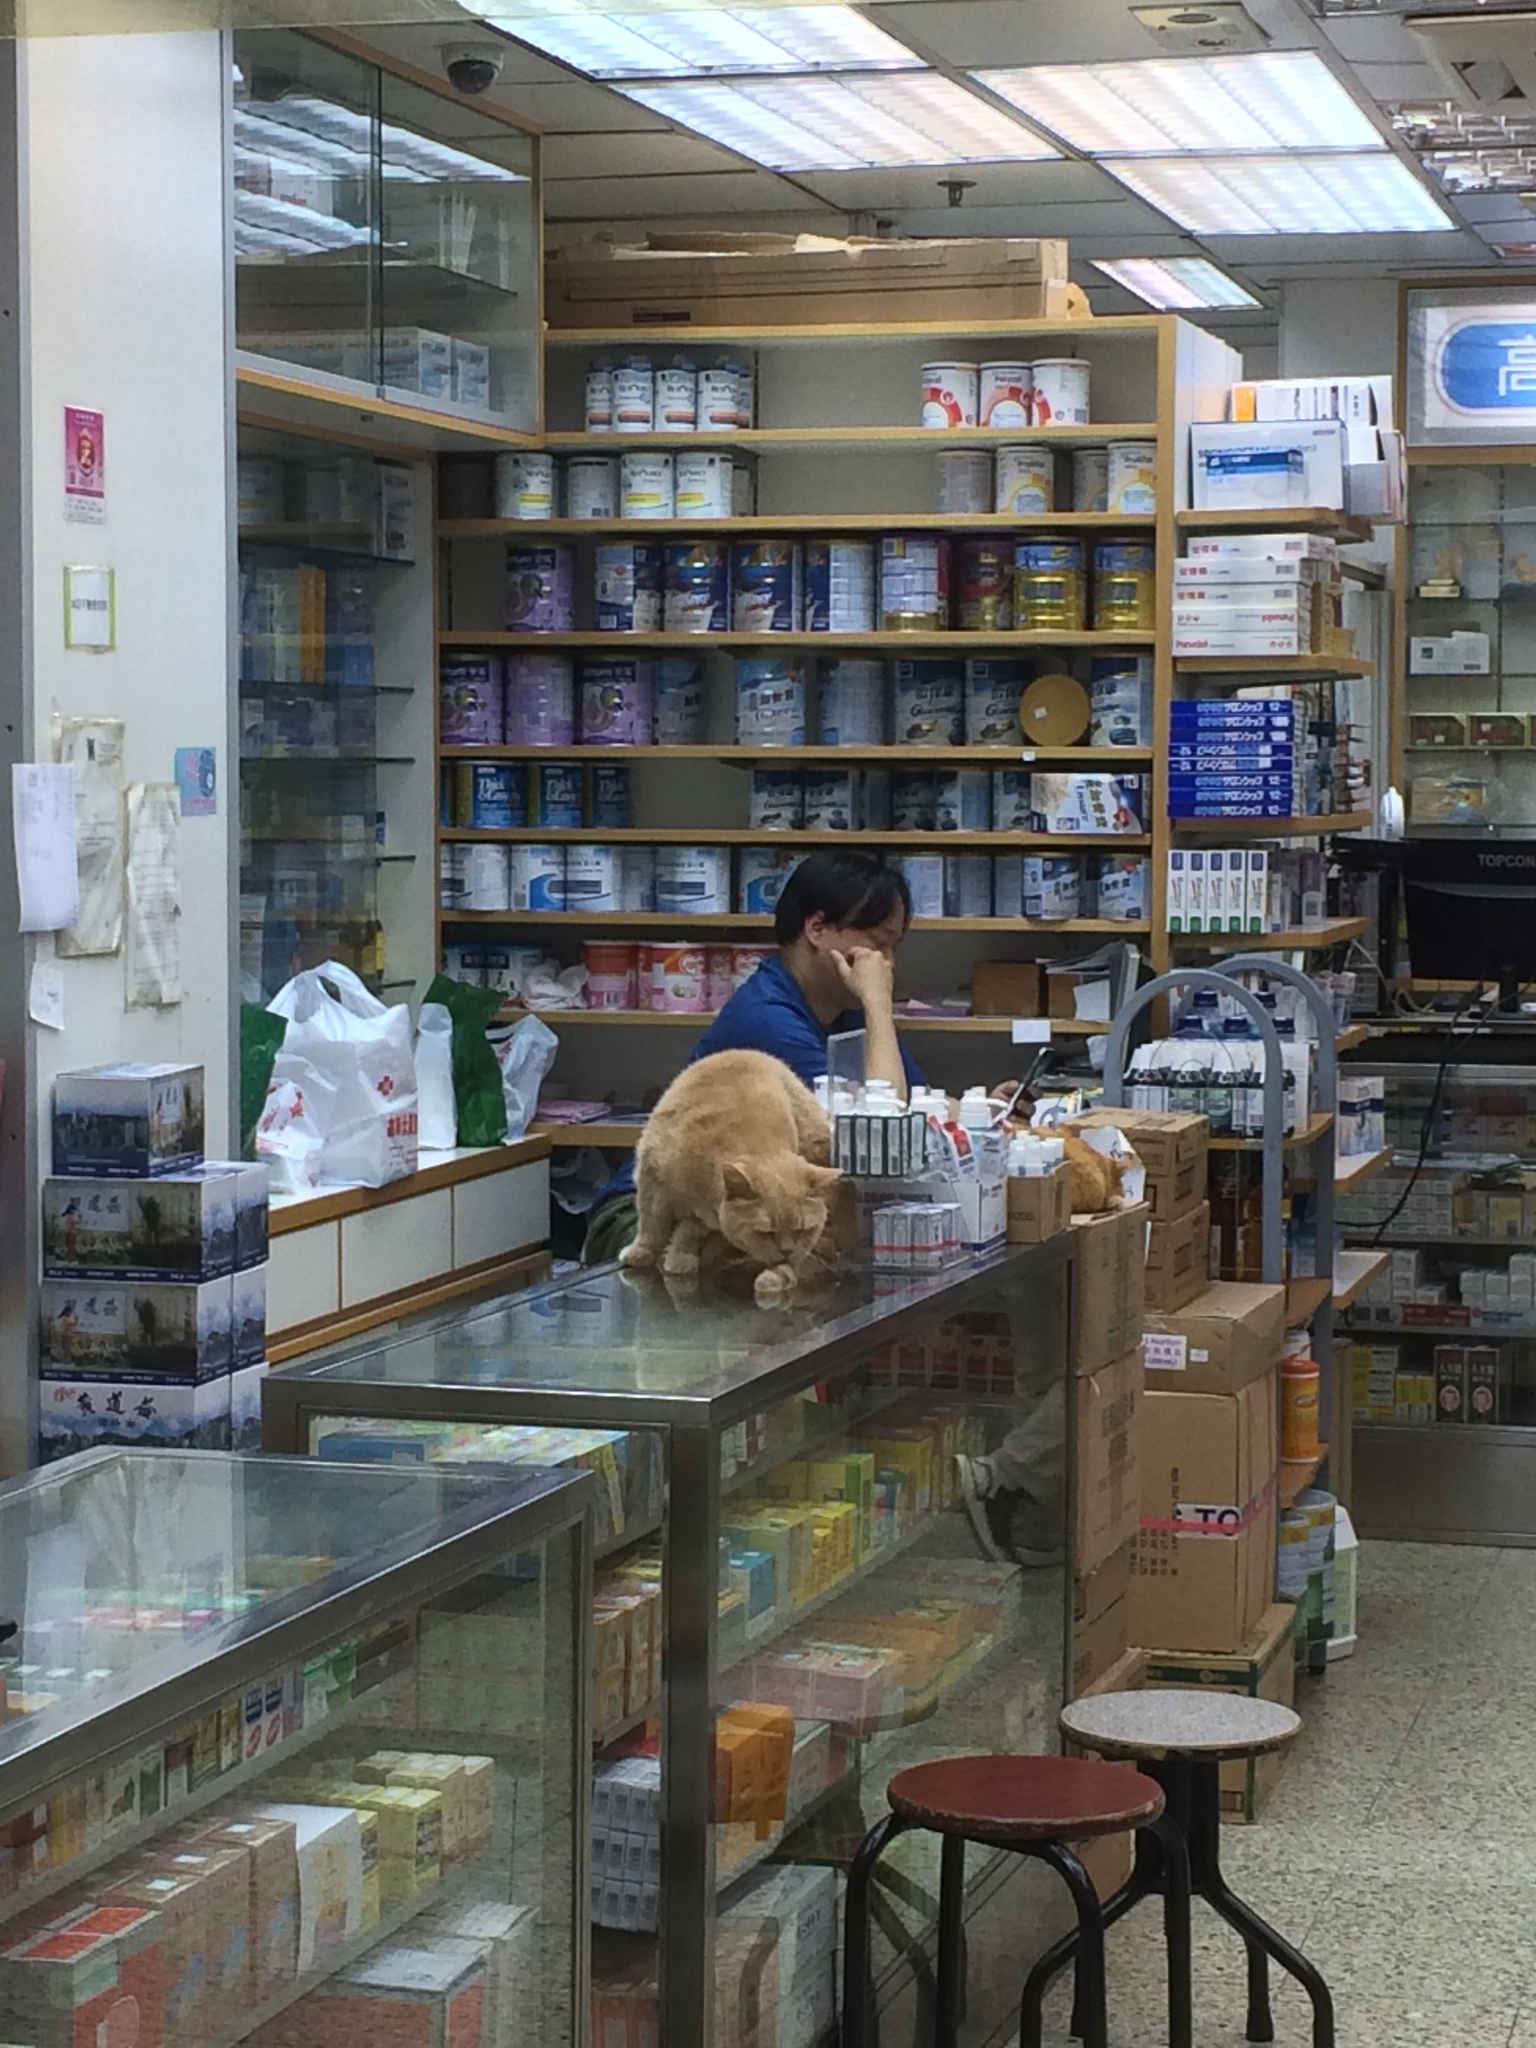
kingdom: Animalia
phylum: Chordata
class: Mammalia
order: Carnivora
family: Felidae
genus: Felis
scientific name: Felis catus
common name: Domestic cat
